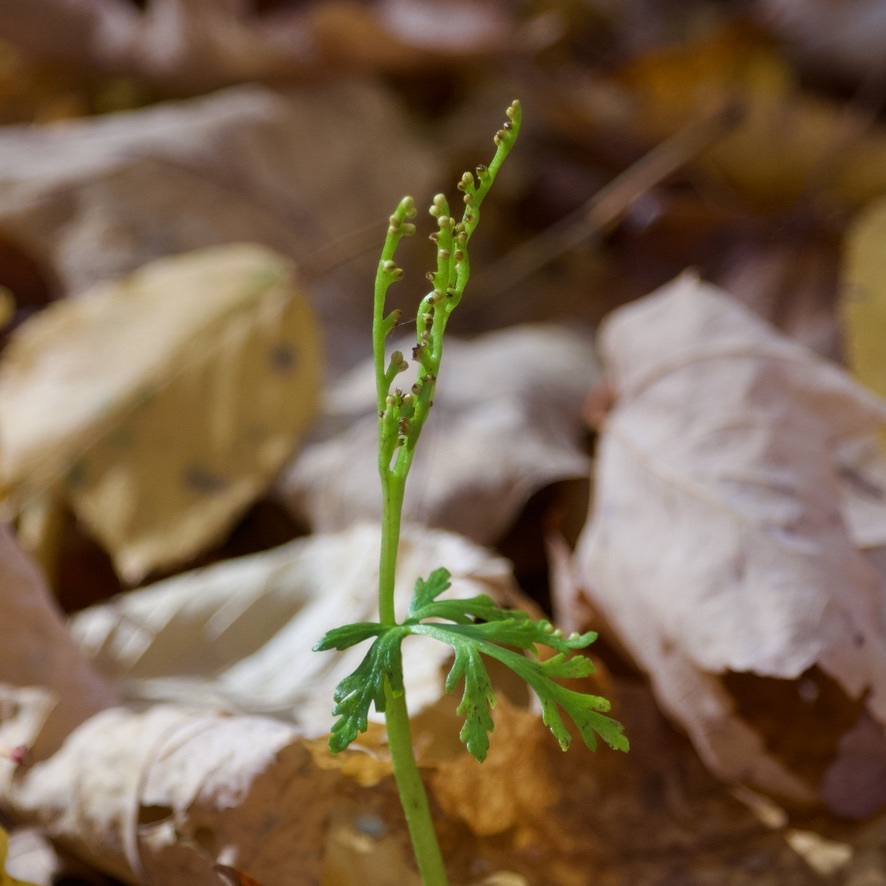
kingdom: Plantae
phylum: Tracheophyta
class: Polypodiopsida
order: Ophioglossales
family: Ophioglossaceae
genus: Botrychium
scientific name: Botrychium angustisegmentum
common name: Narrow triangle moonwort
